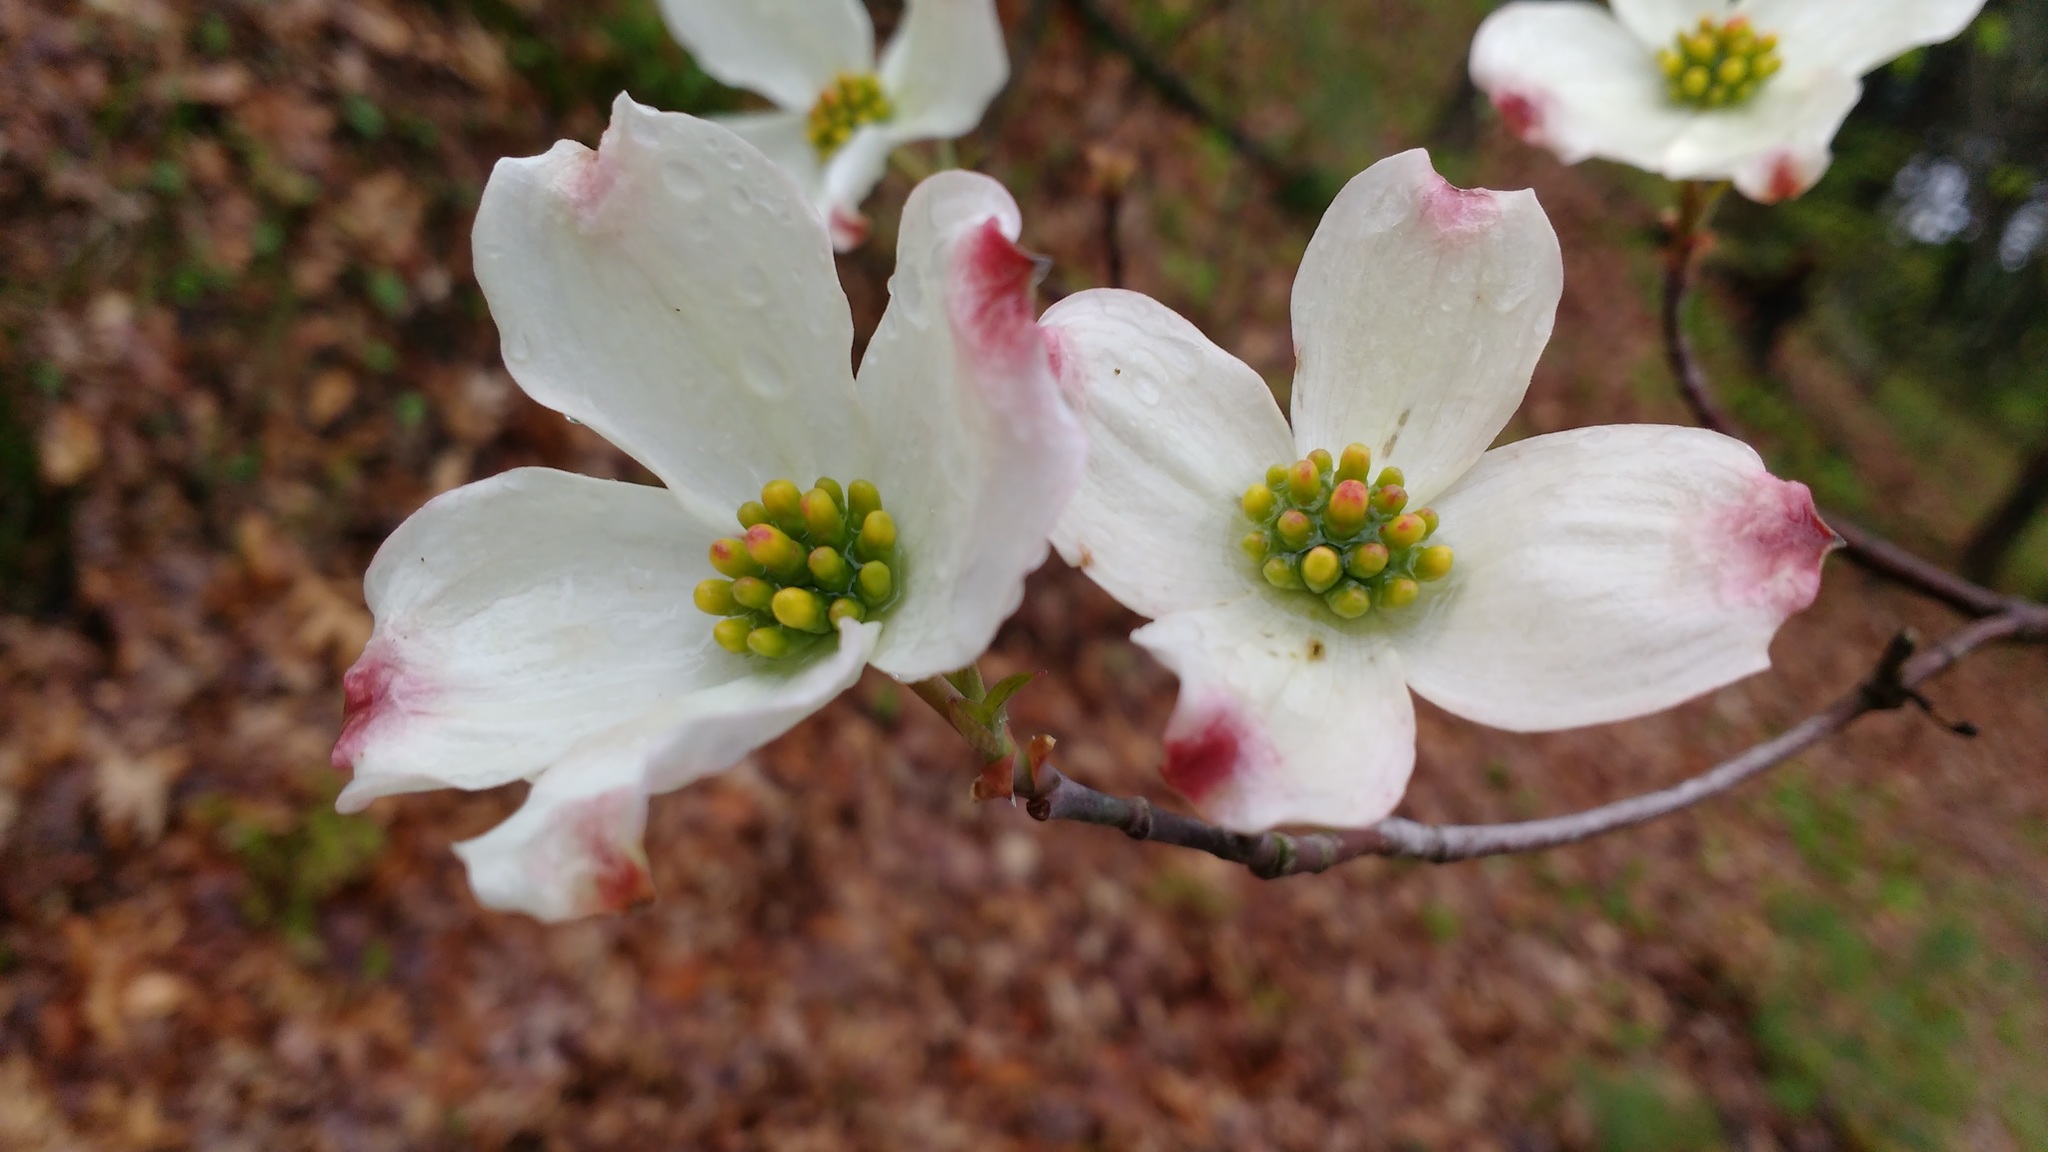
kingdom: Plantae
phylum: Tracheophyta
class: Magnoliopsida
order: Cornales
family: Cornaceae
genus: Cornus
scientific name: Cornus florida
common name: Flowering dogwood
